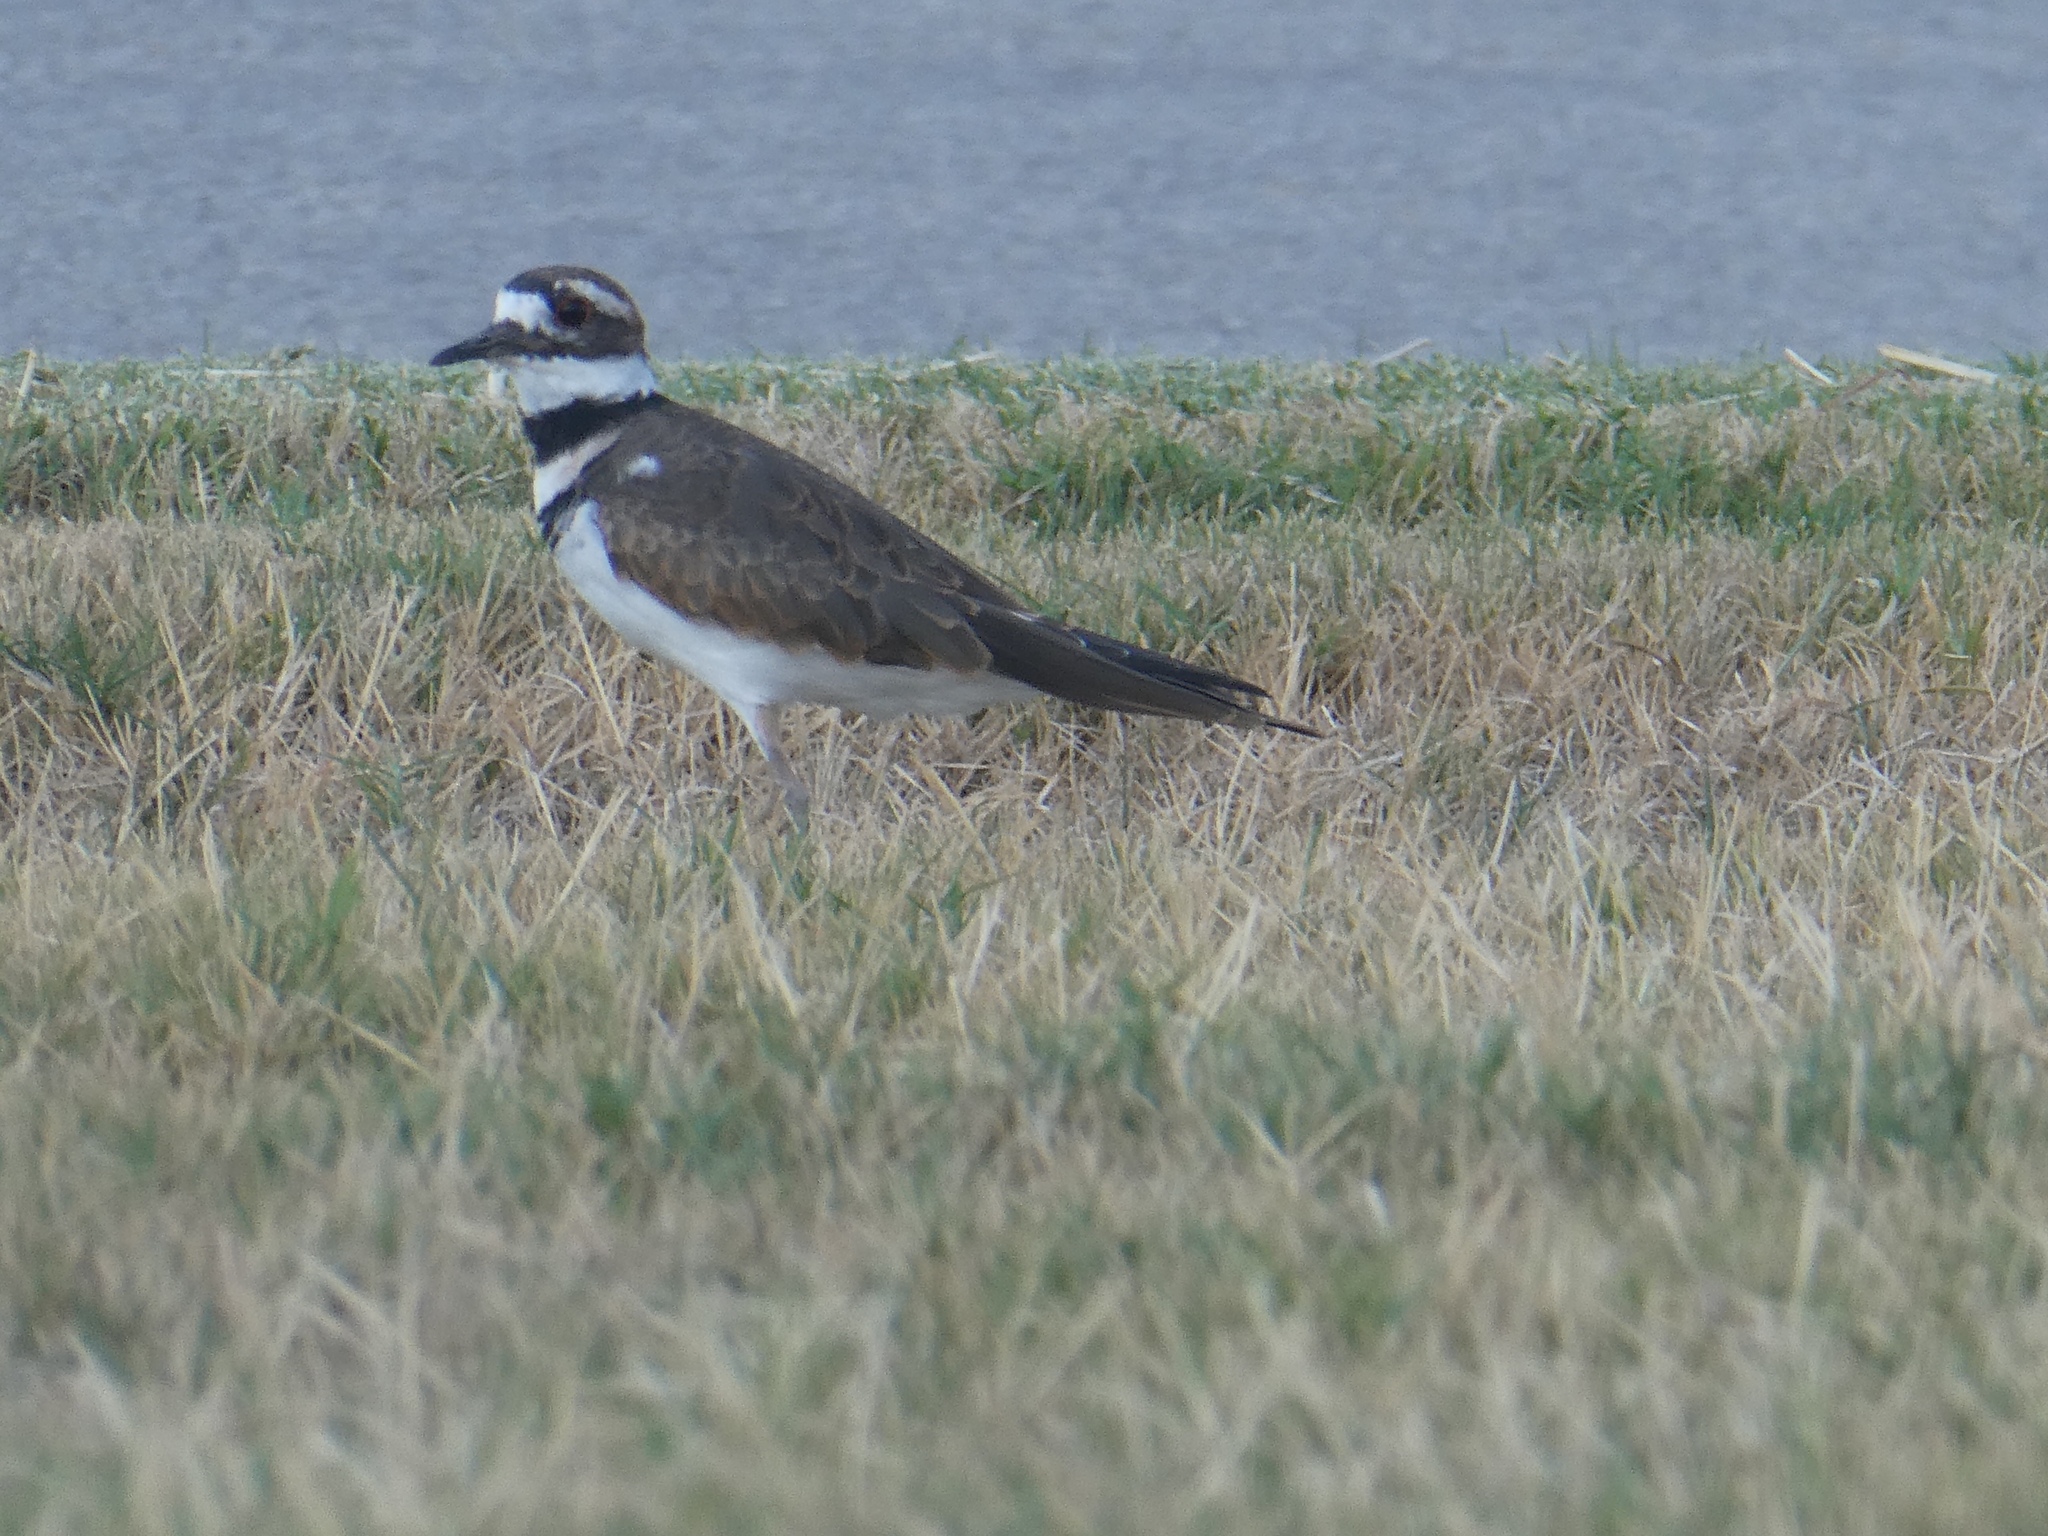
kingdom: Animalia
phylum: Chordata
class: Aves
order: Charadriiformes
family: Charadriidae
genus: Charadrius
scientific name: Charadrius vociferus
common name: Killdeer
